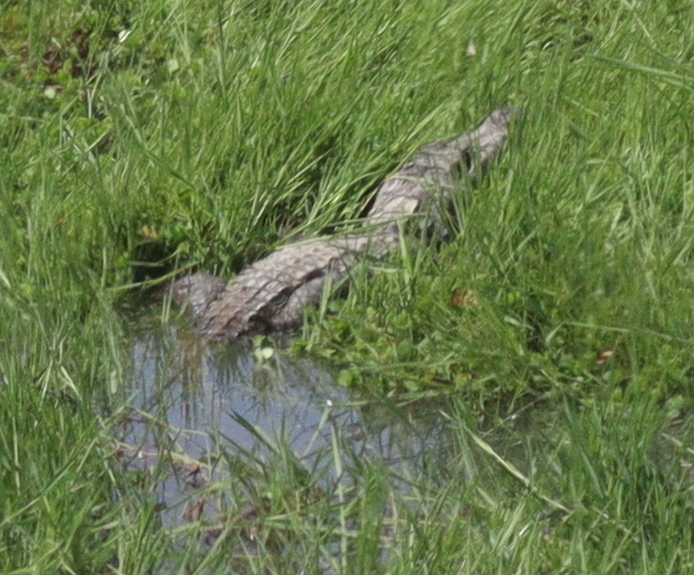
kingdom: Animalia
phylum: Chordata
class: Crocodylia
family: Crocodylidae
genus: Crocodylus
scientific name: Crocodylus suchus
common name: West african crocodile
